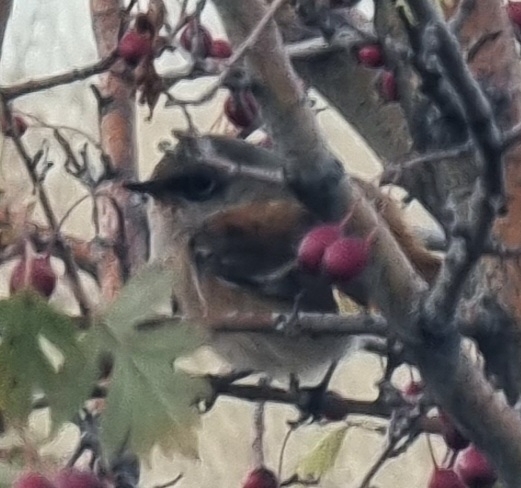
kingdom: Animalia
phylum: Chordata
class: Aves
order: Passeriformes
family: Muscicapidae
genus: Phoenicurus
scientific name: Phoenicurus erythronotus
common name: Eversmann's redstart
